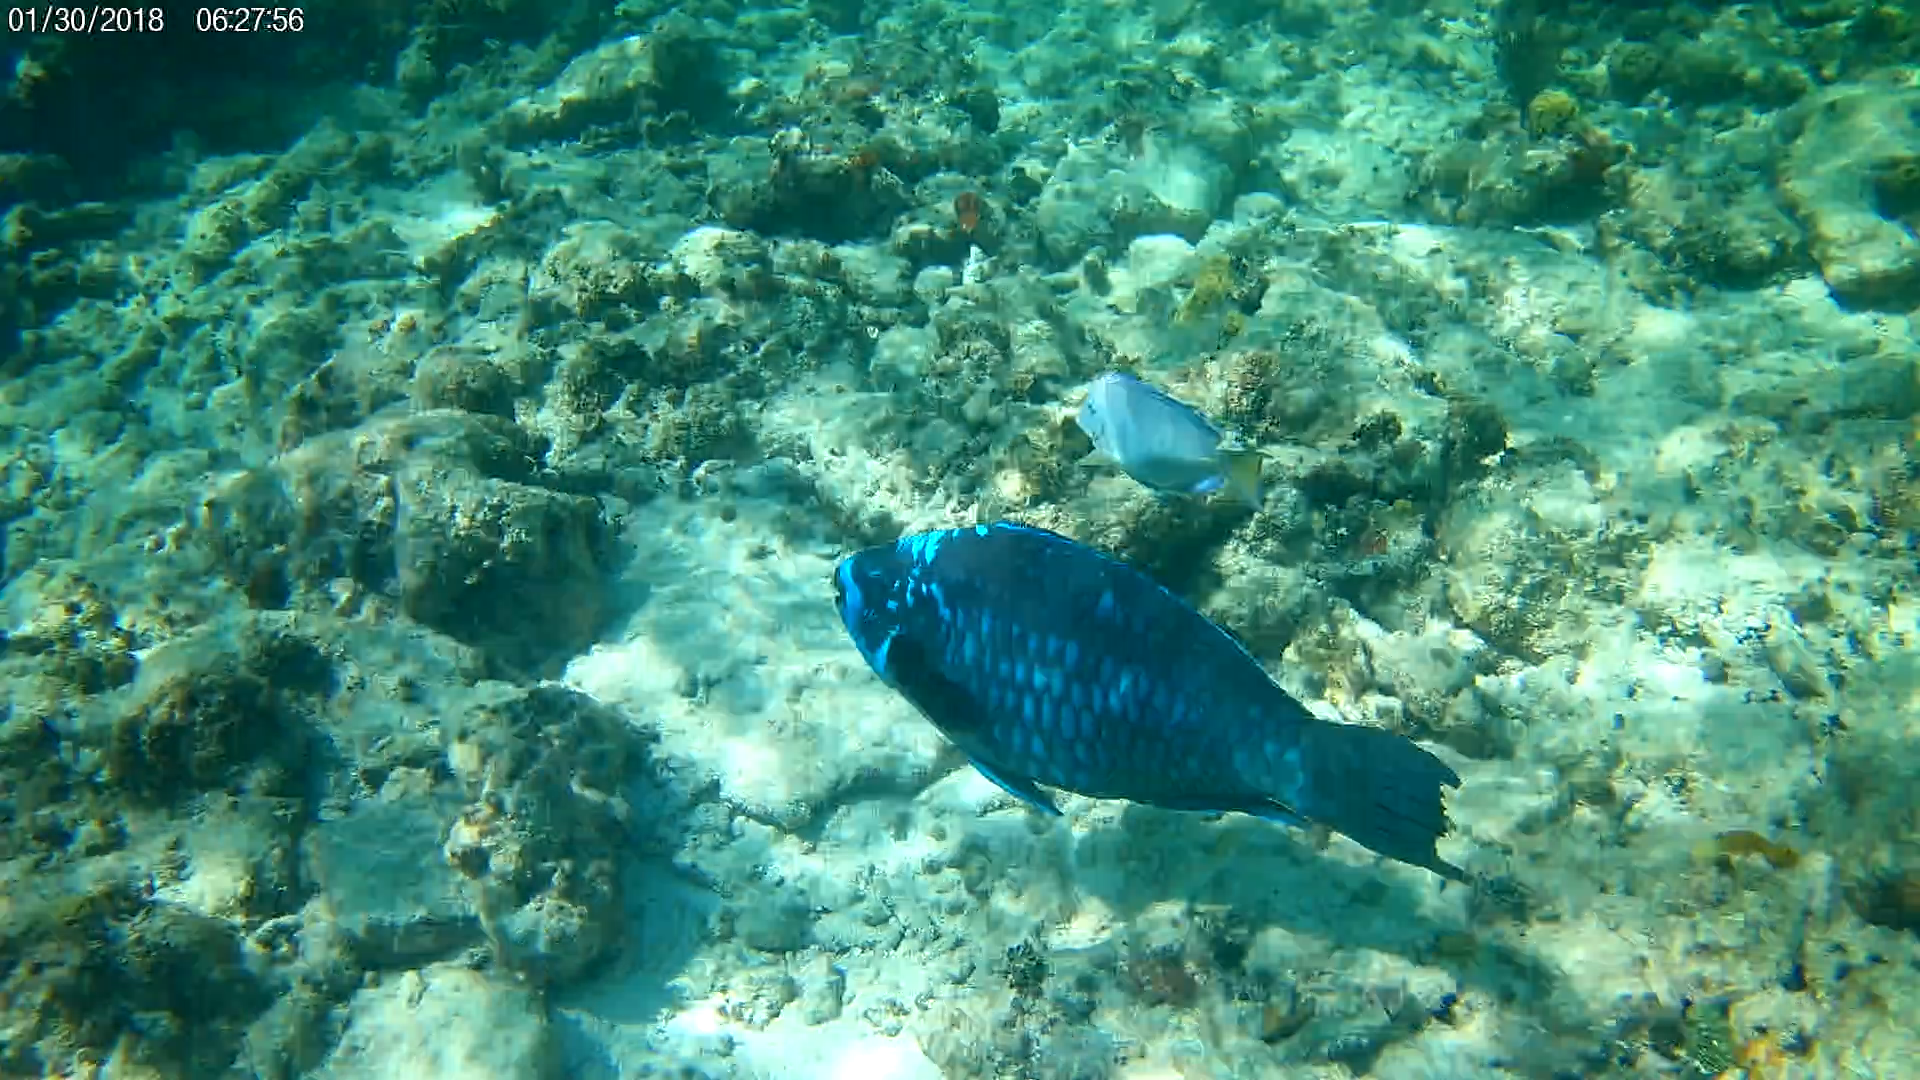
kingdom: Animalia
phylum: Chordata
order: Perciformes
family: Scaridae
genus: Scarus
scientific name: Scarus coelestinus
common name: Midnight parrotfish
